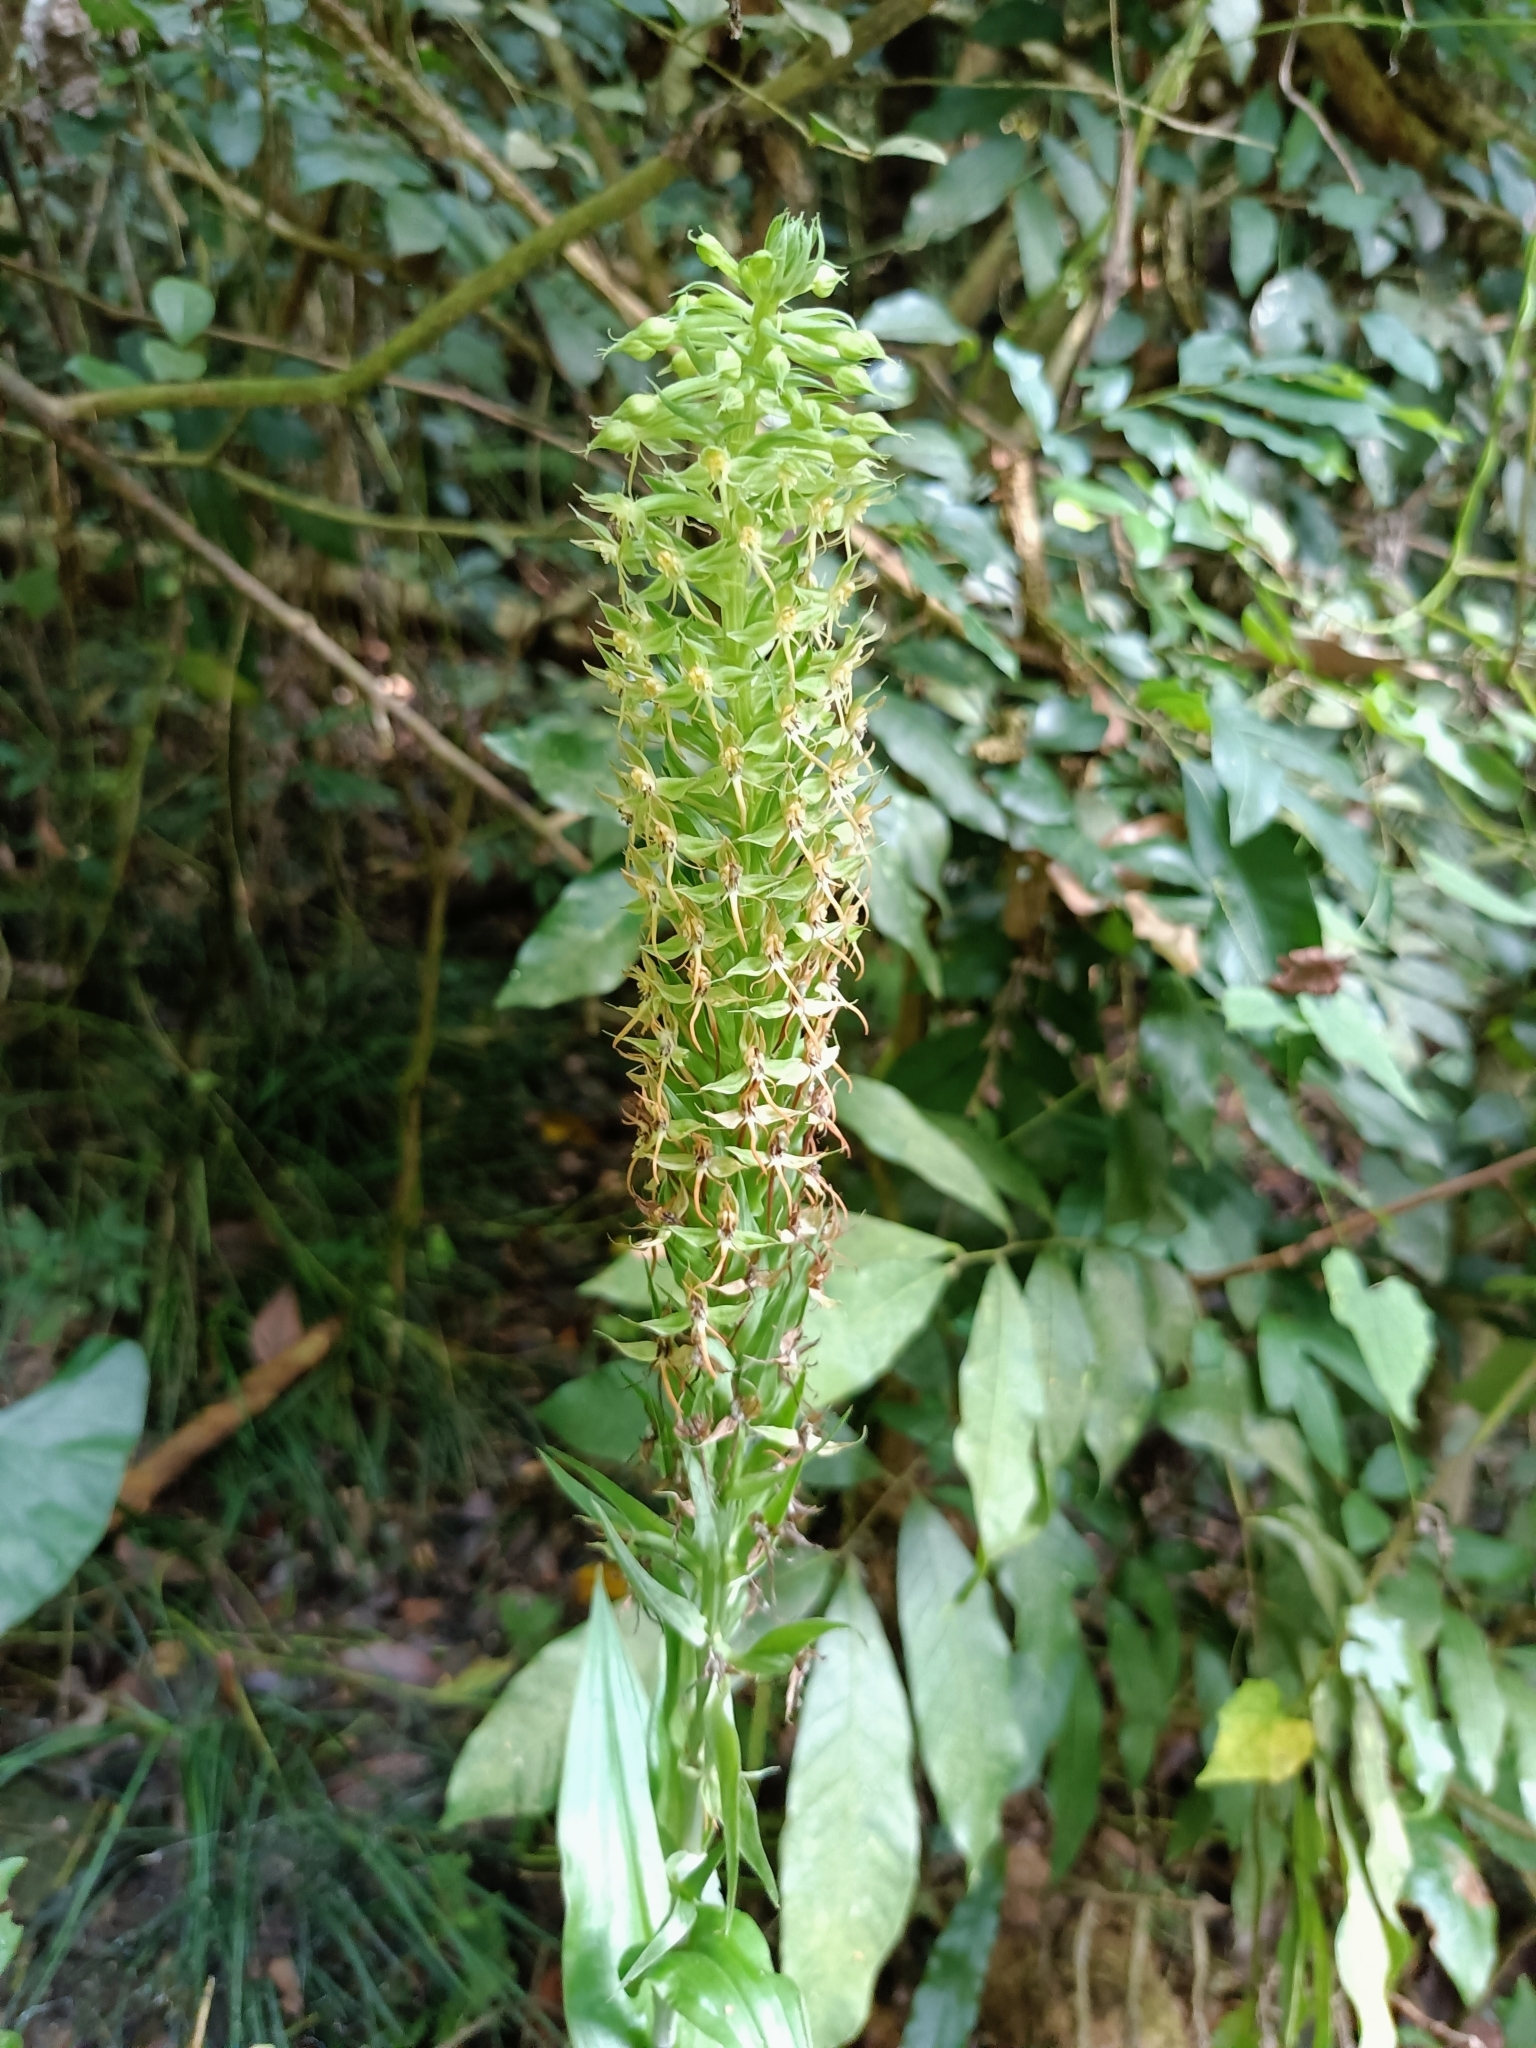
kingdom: Plantae
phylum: Tracheophyta
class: Liliopsida
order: Asparagales
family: Orchidaceae
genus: Habenaria
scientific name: Habenaria stenopetala
